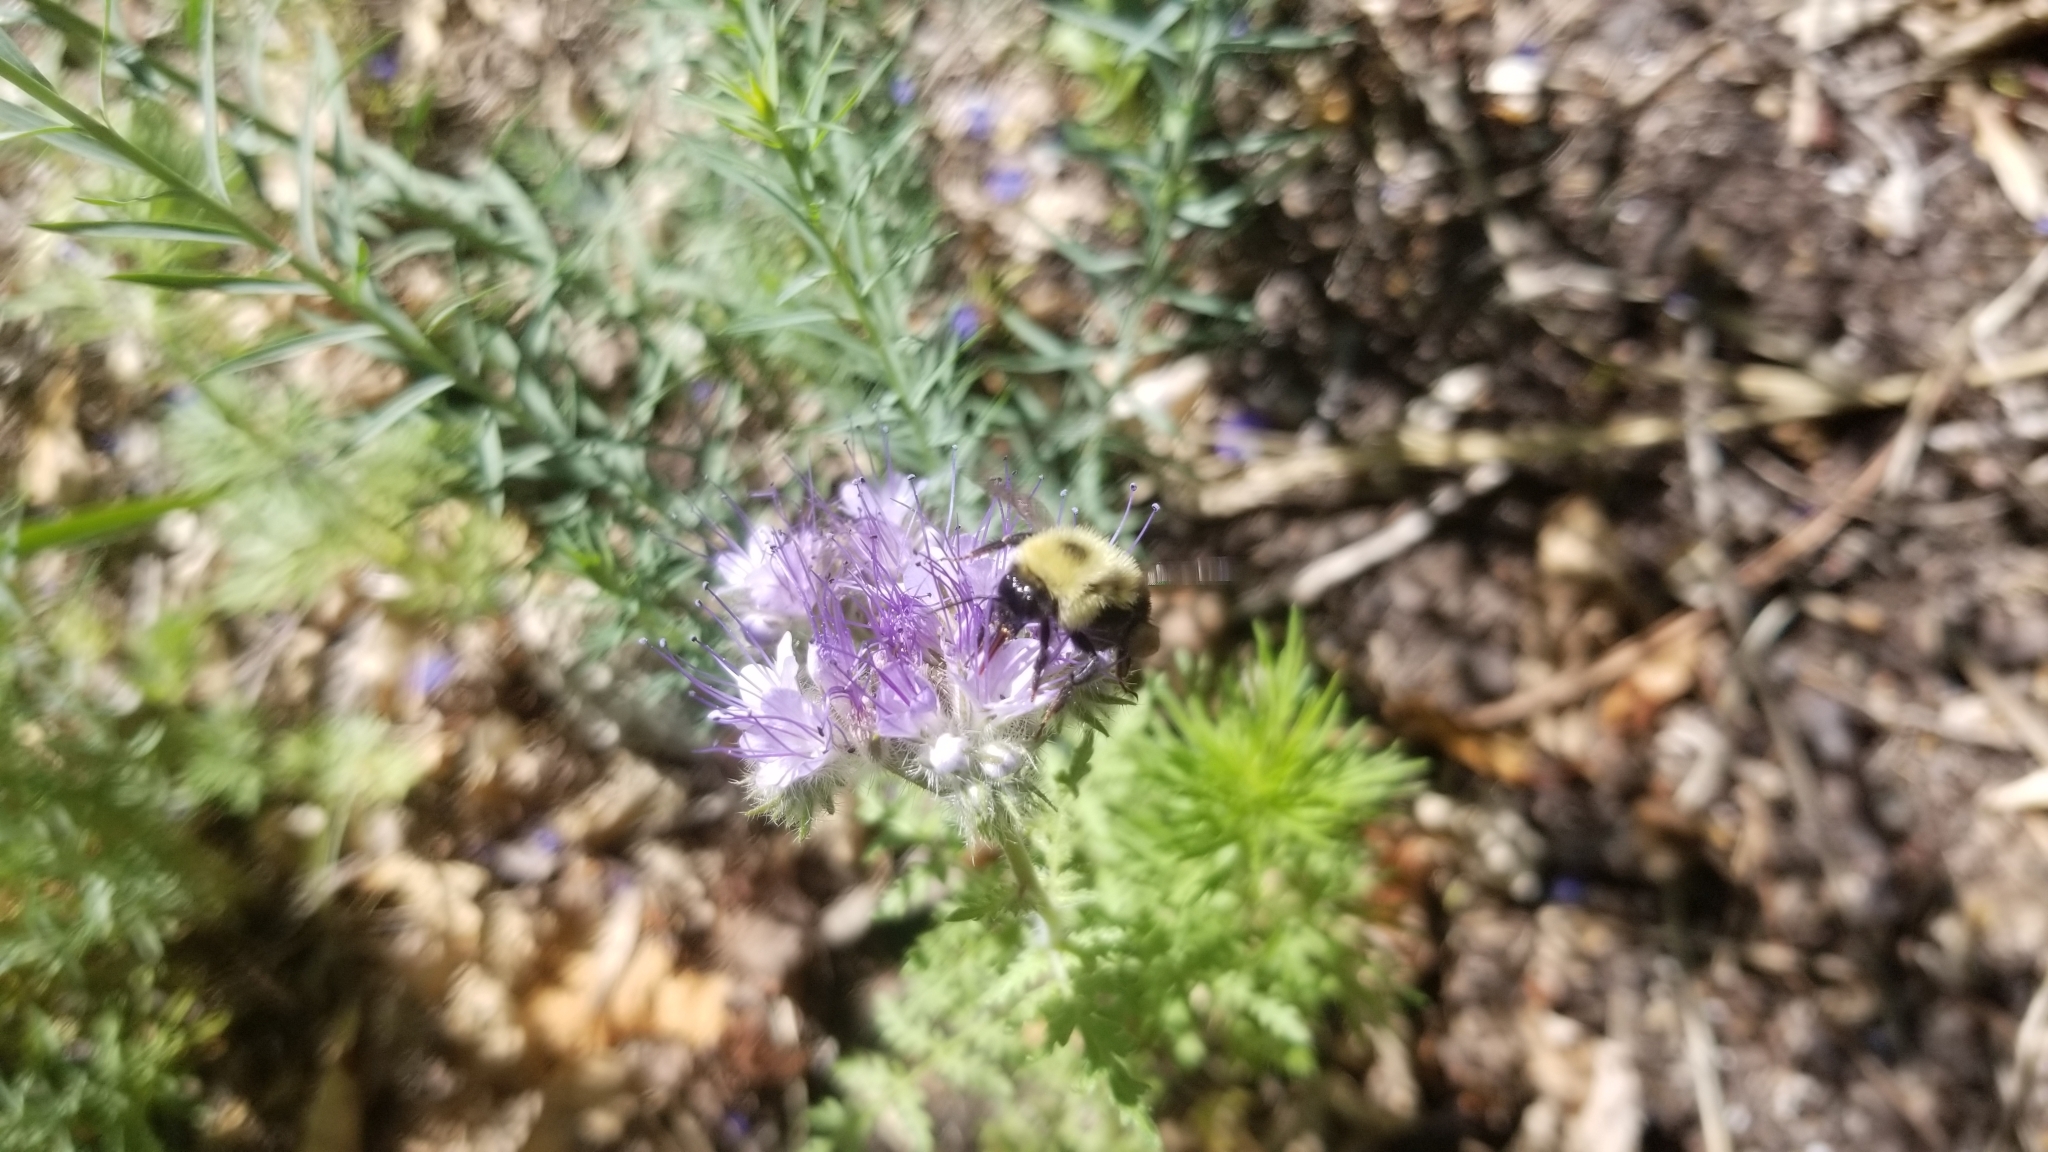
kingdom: Animalia
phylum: Arthropoda
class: Insecta
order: Hymenoptera
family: Apidae
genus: Bombus
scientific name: Bombus bimaculatus
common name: Two-spotted bumble bee
